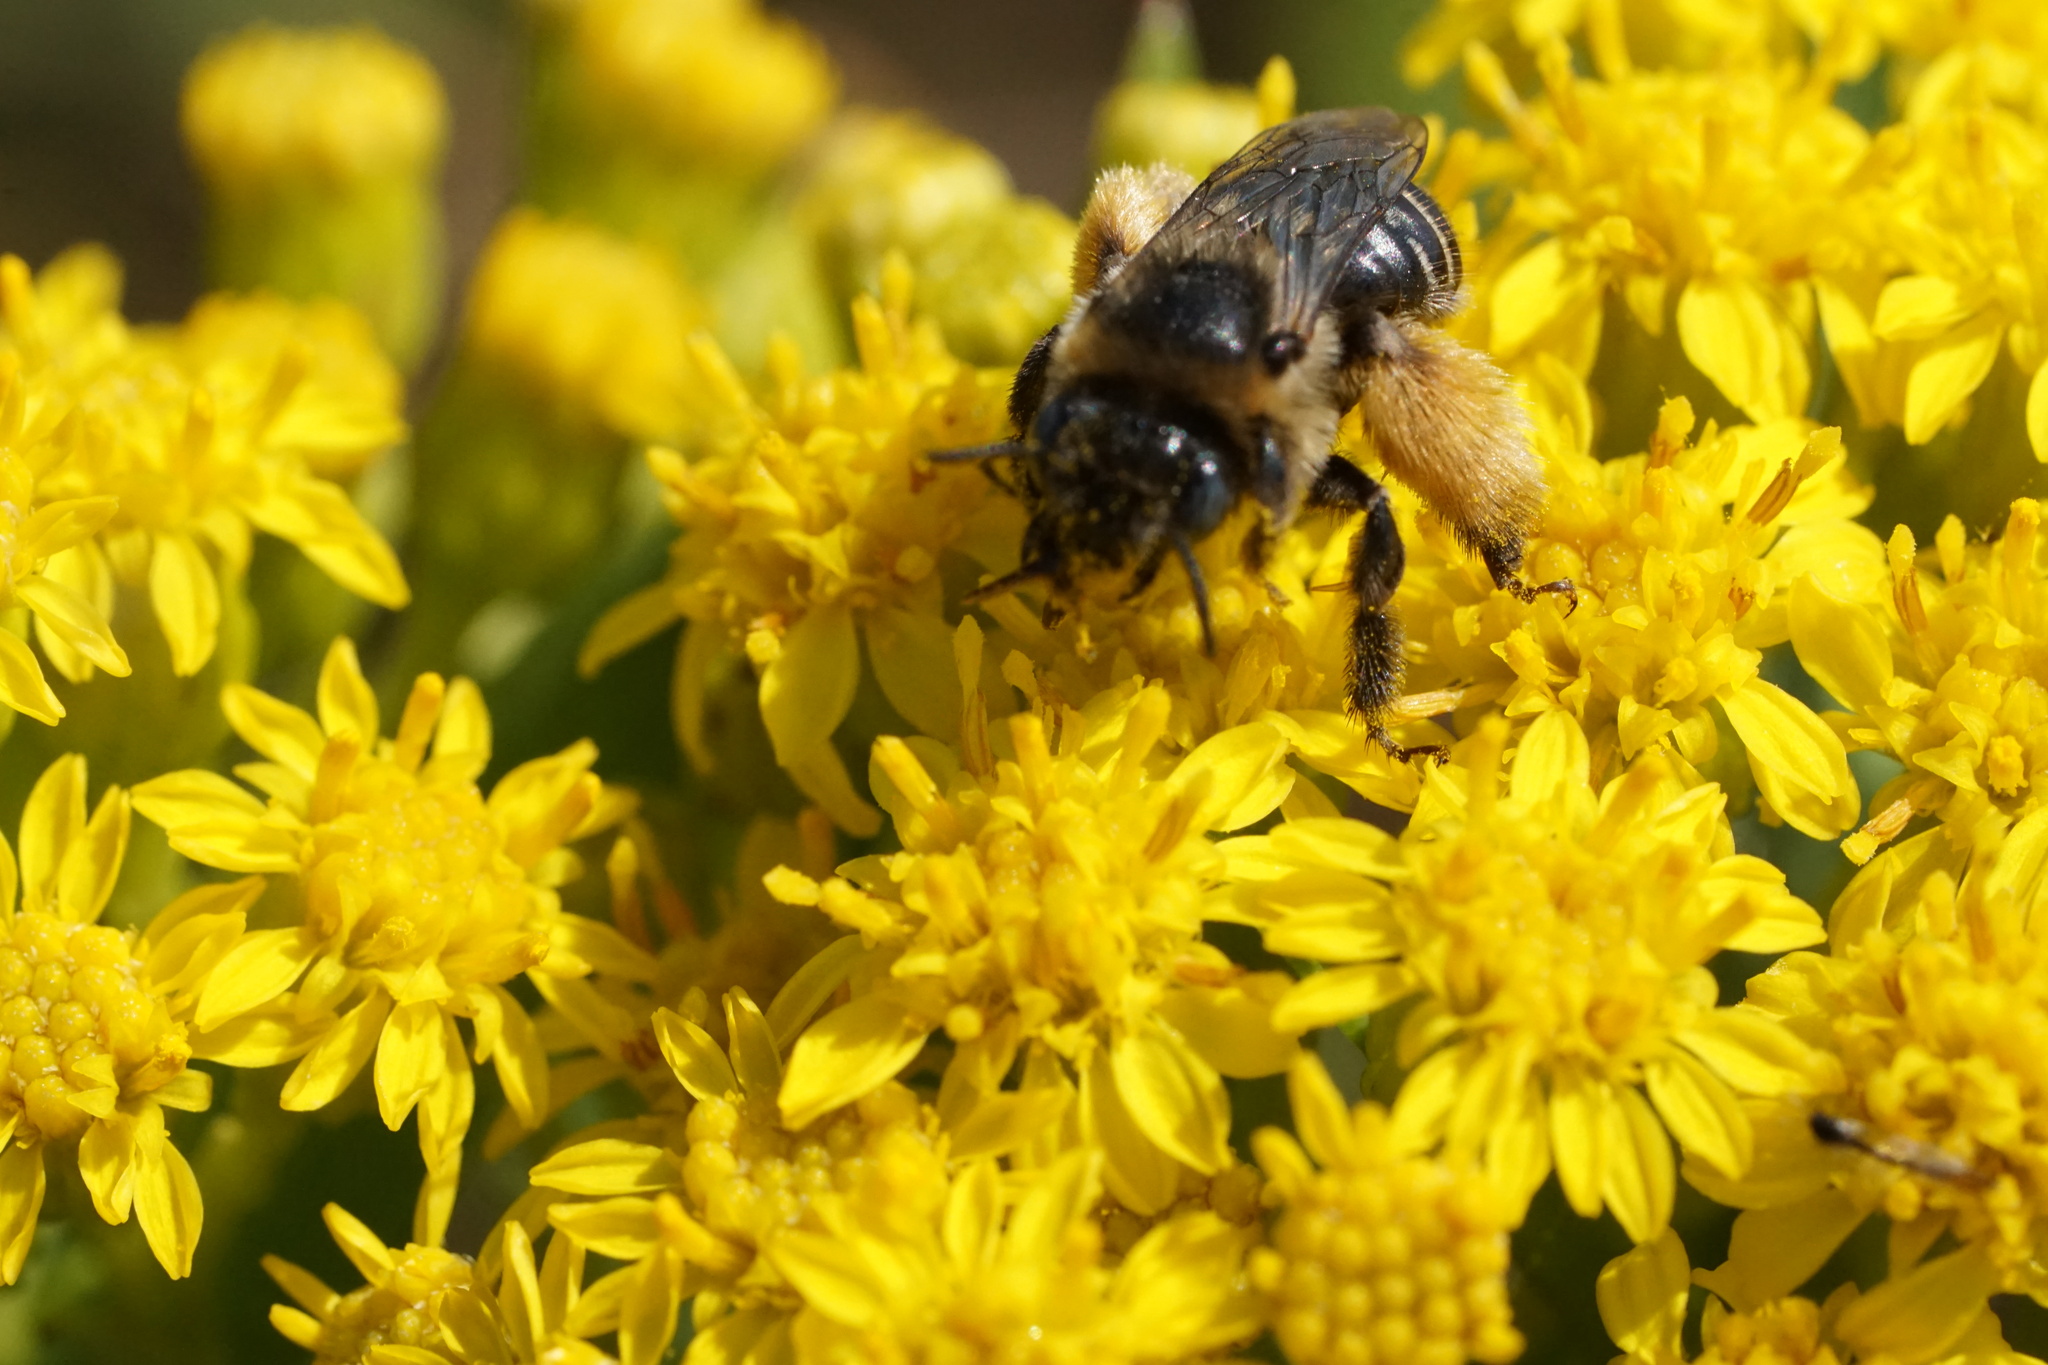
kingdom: Animalia
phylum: Arthropoda
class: Insecta
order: Hymenoptera
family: Apidae
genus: Melissodes
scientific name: Melissodes druriellus
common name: Drury's long-horned bee
